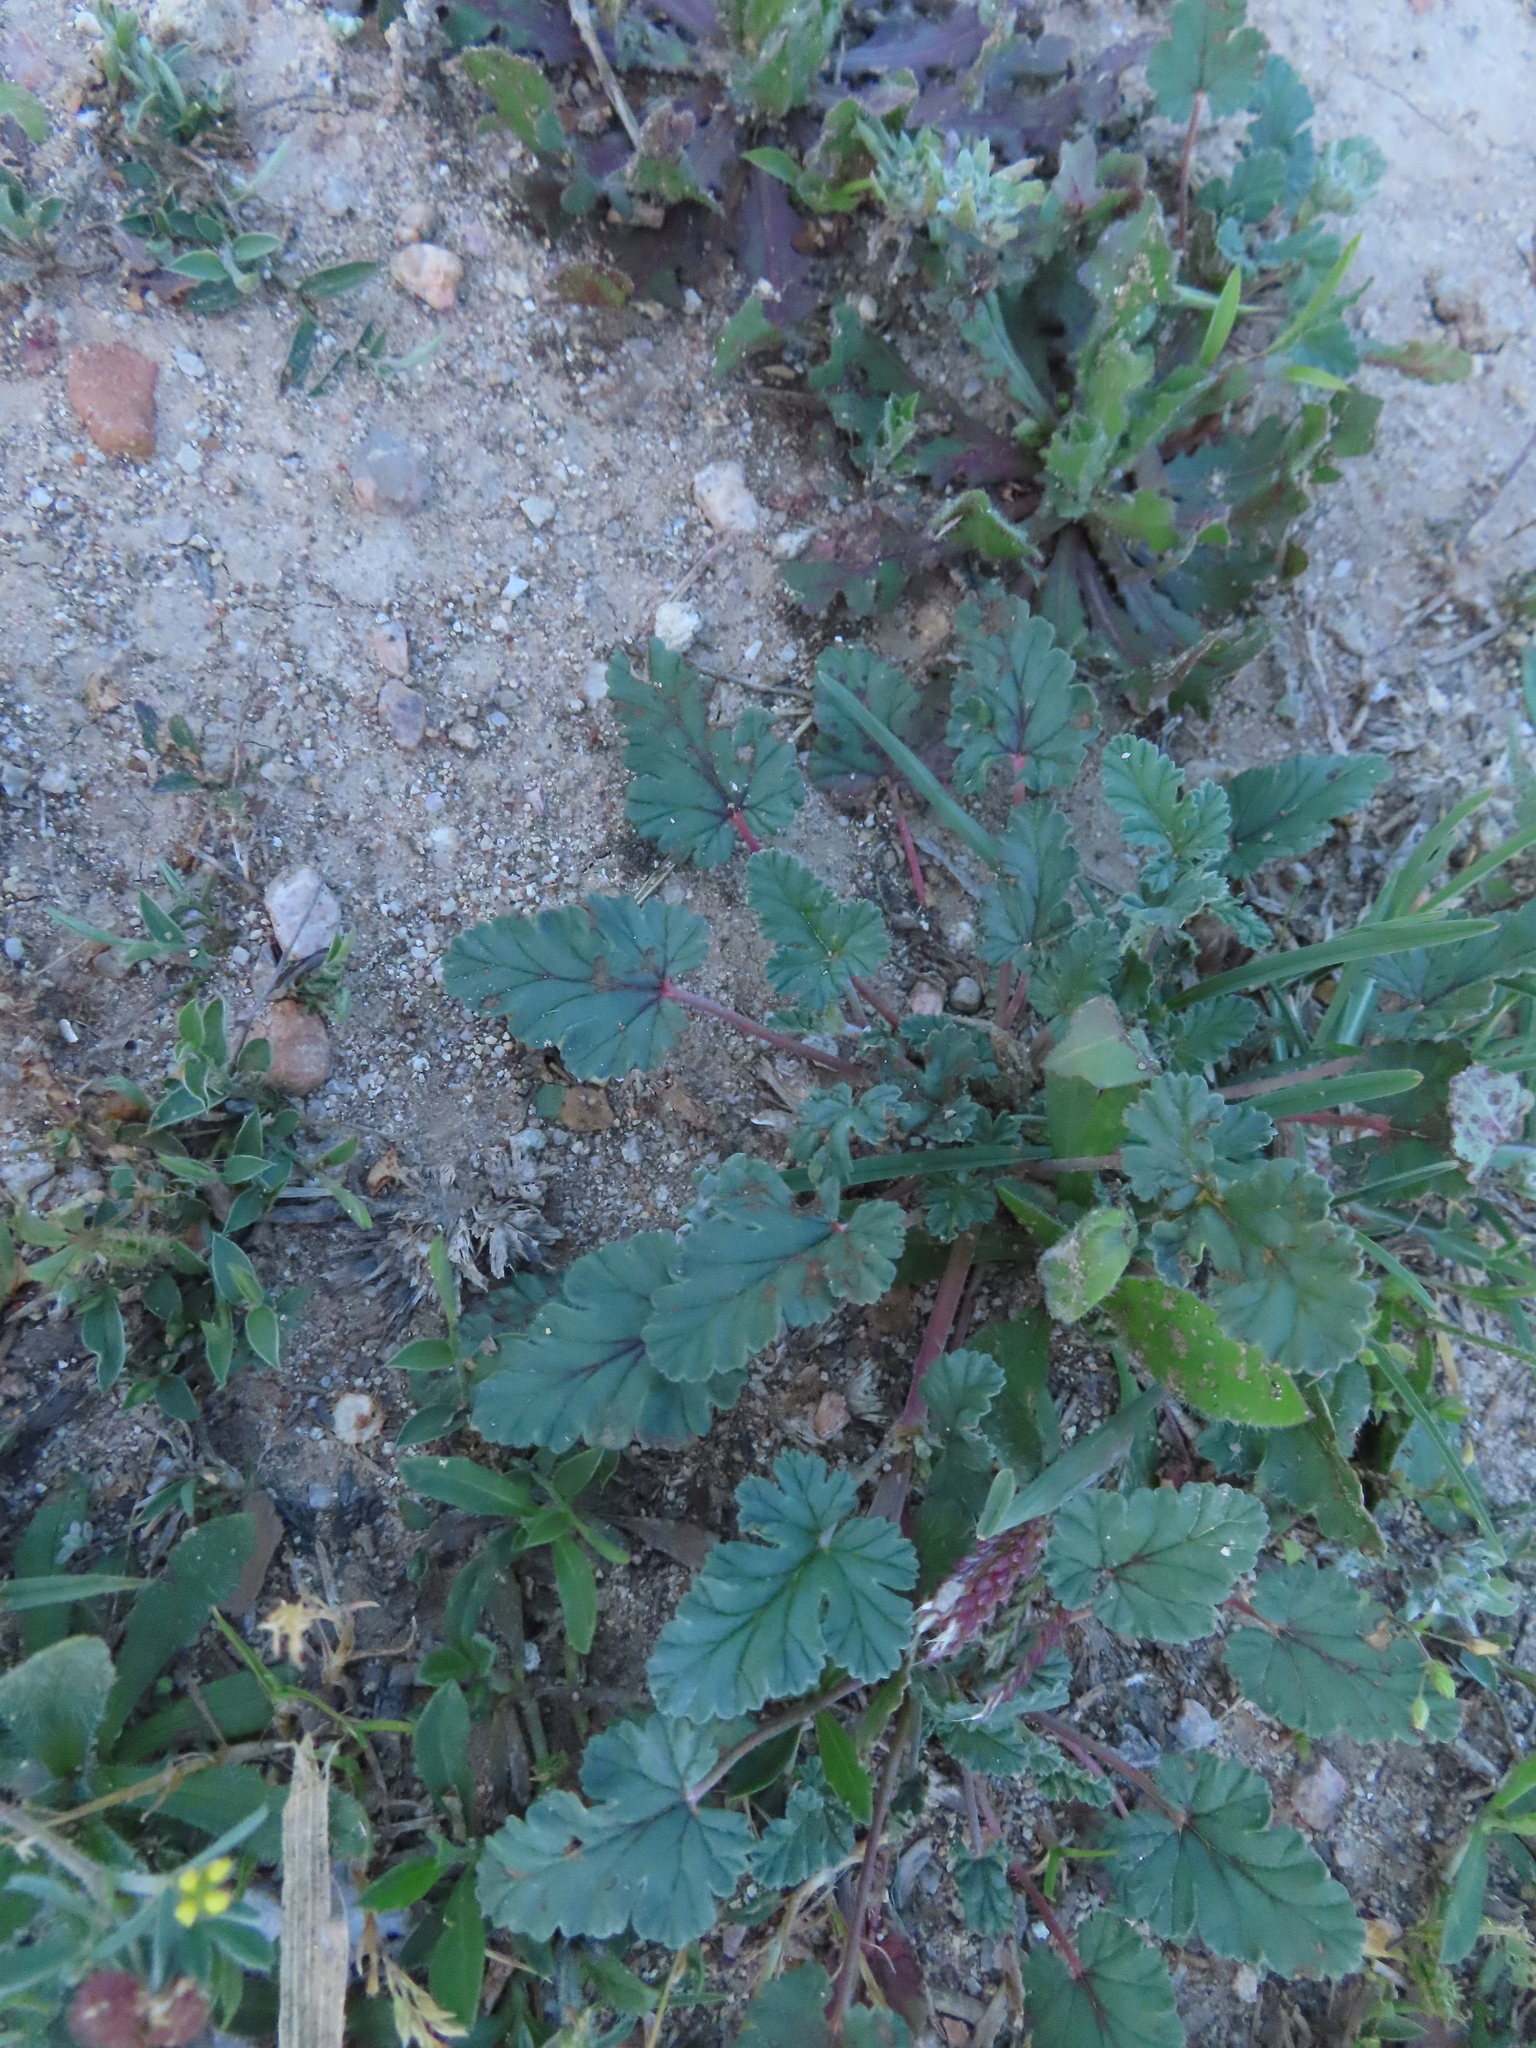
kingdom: Plantae
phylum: Tracheophyta
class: Magnoliopsida
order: Geraniales
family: Geraniaceae
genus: Erodium
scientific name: Erodium texanum
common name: Texas stork's-bill
